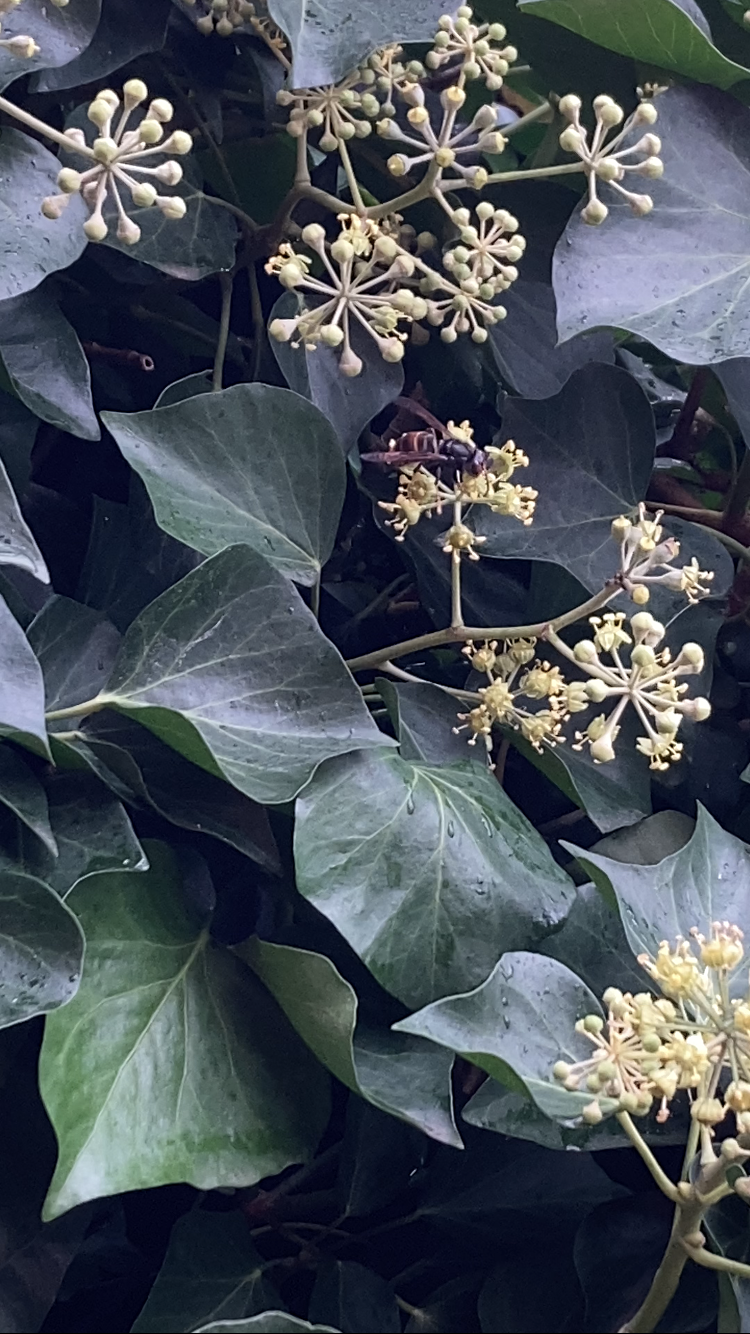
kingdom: Animalia
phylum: Arthropoda
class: Insecta
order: Hymenoptera
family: Vespidae
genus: Vespa
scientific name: Vespa velutina
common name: Asian hornet
